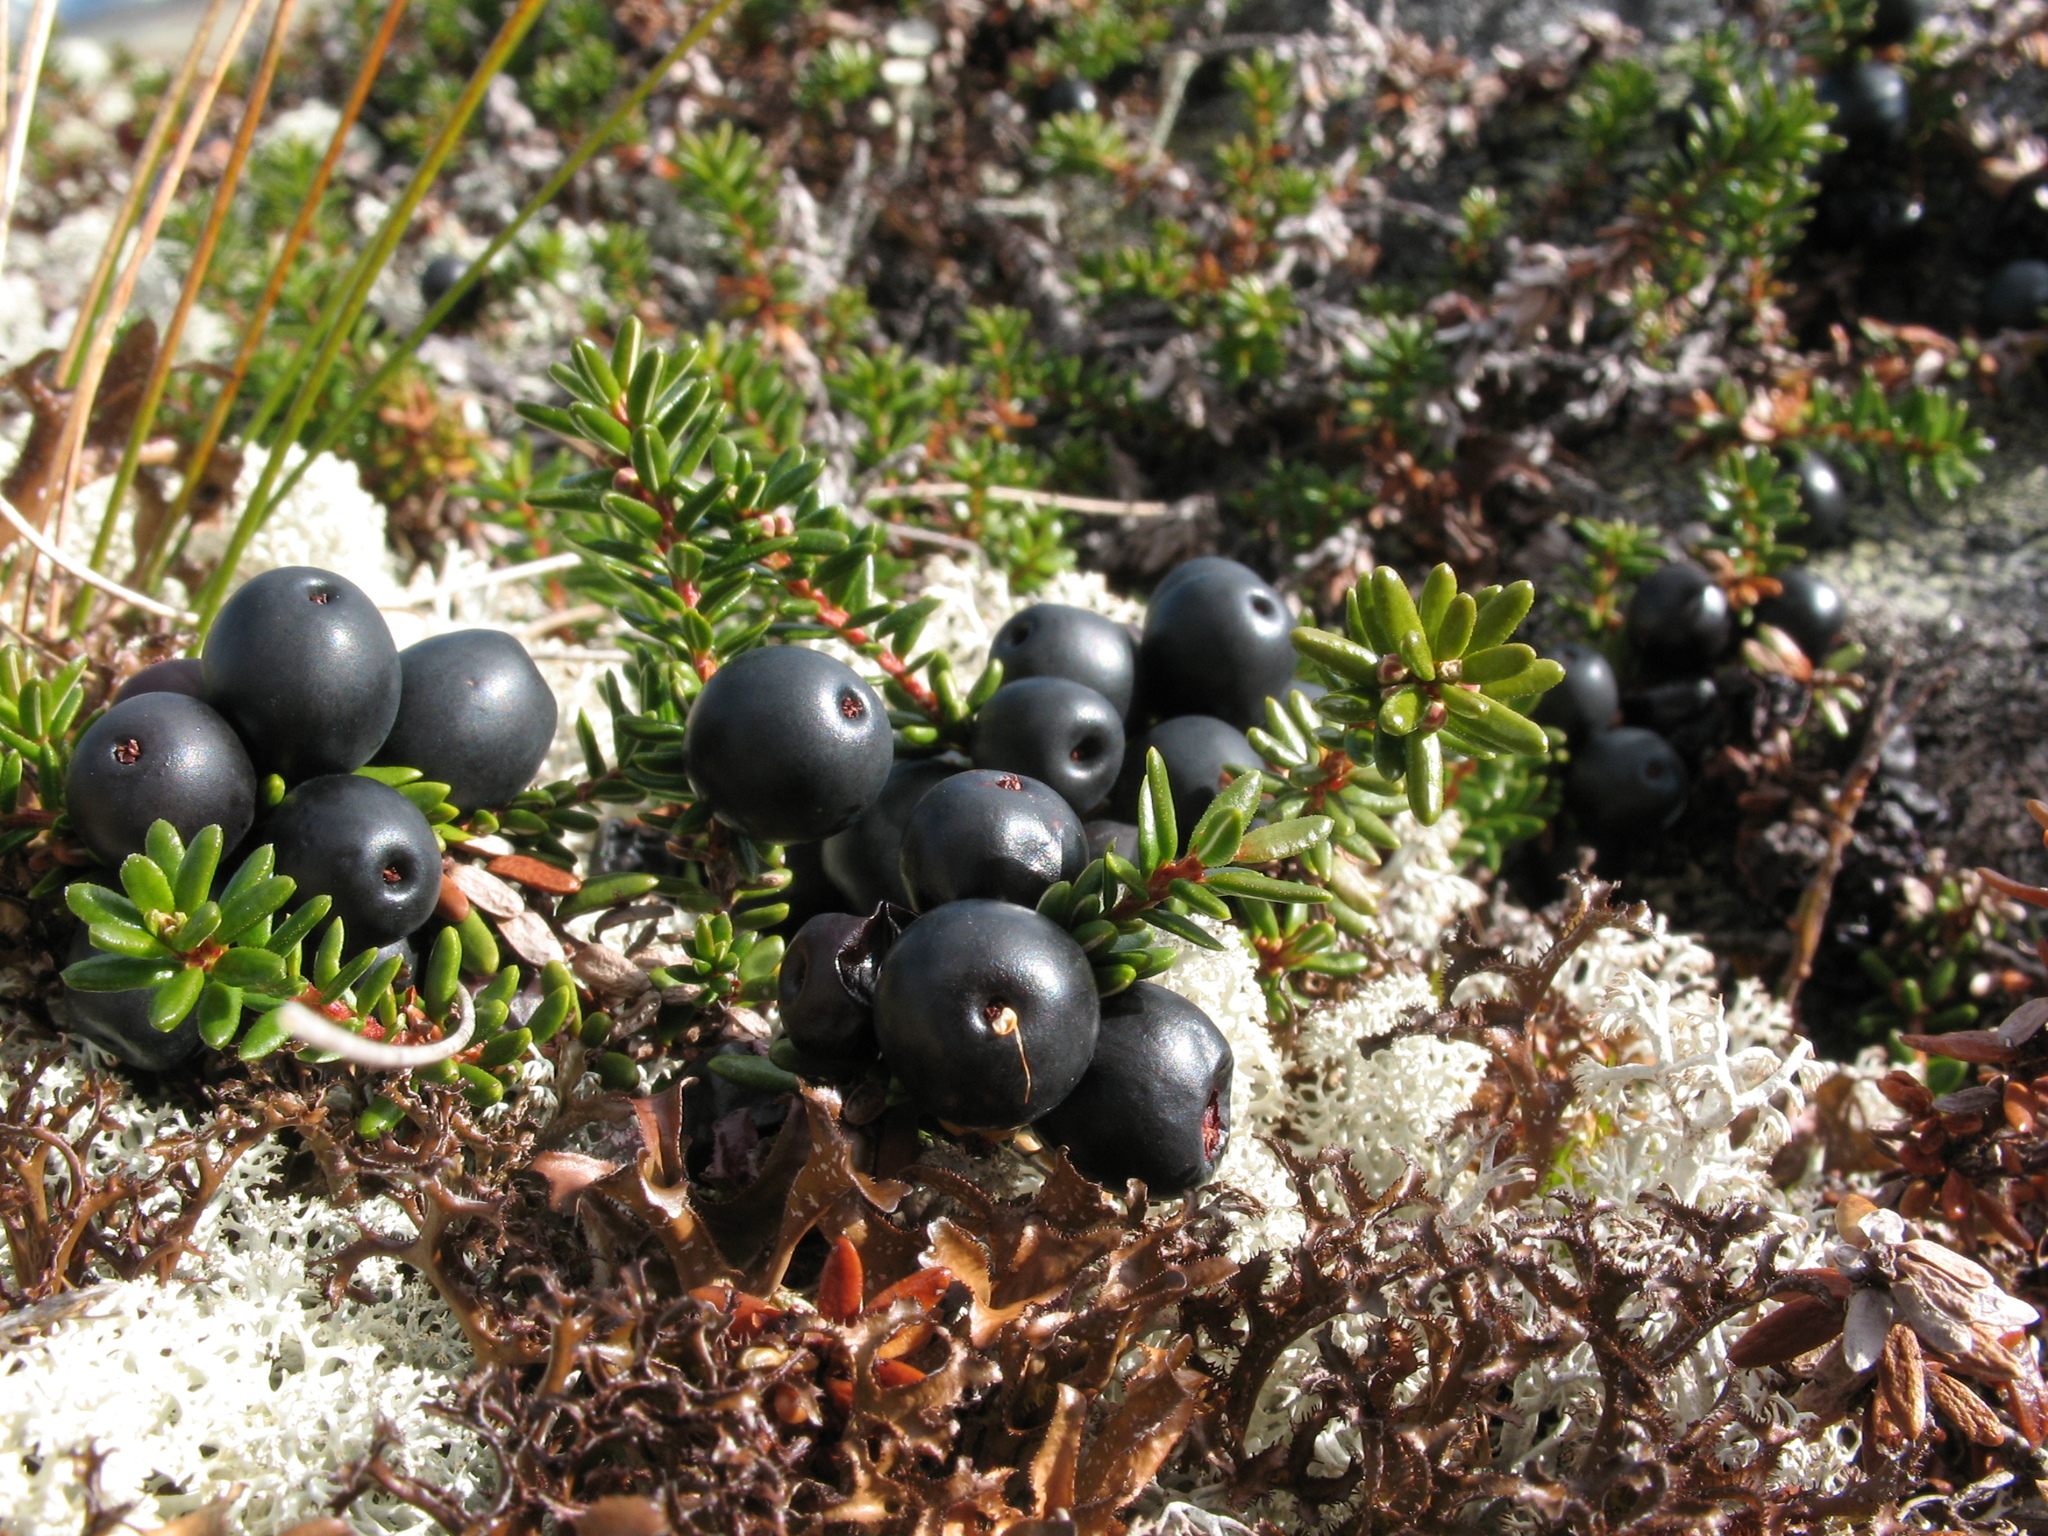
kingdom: Plantae
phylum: Tracheophyta
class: Magnoliopsida
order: Ericales
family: Ericaceae
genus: Empetrum
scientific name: Empetrum nigrum
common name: Black crowberry
